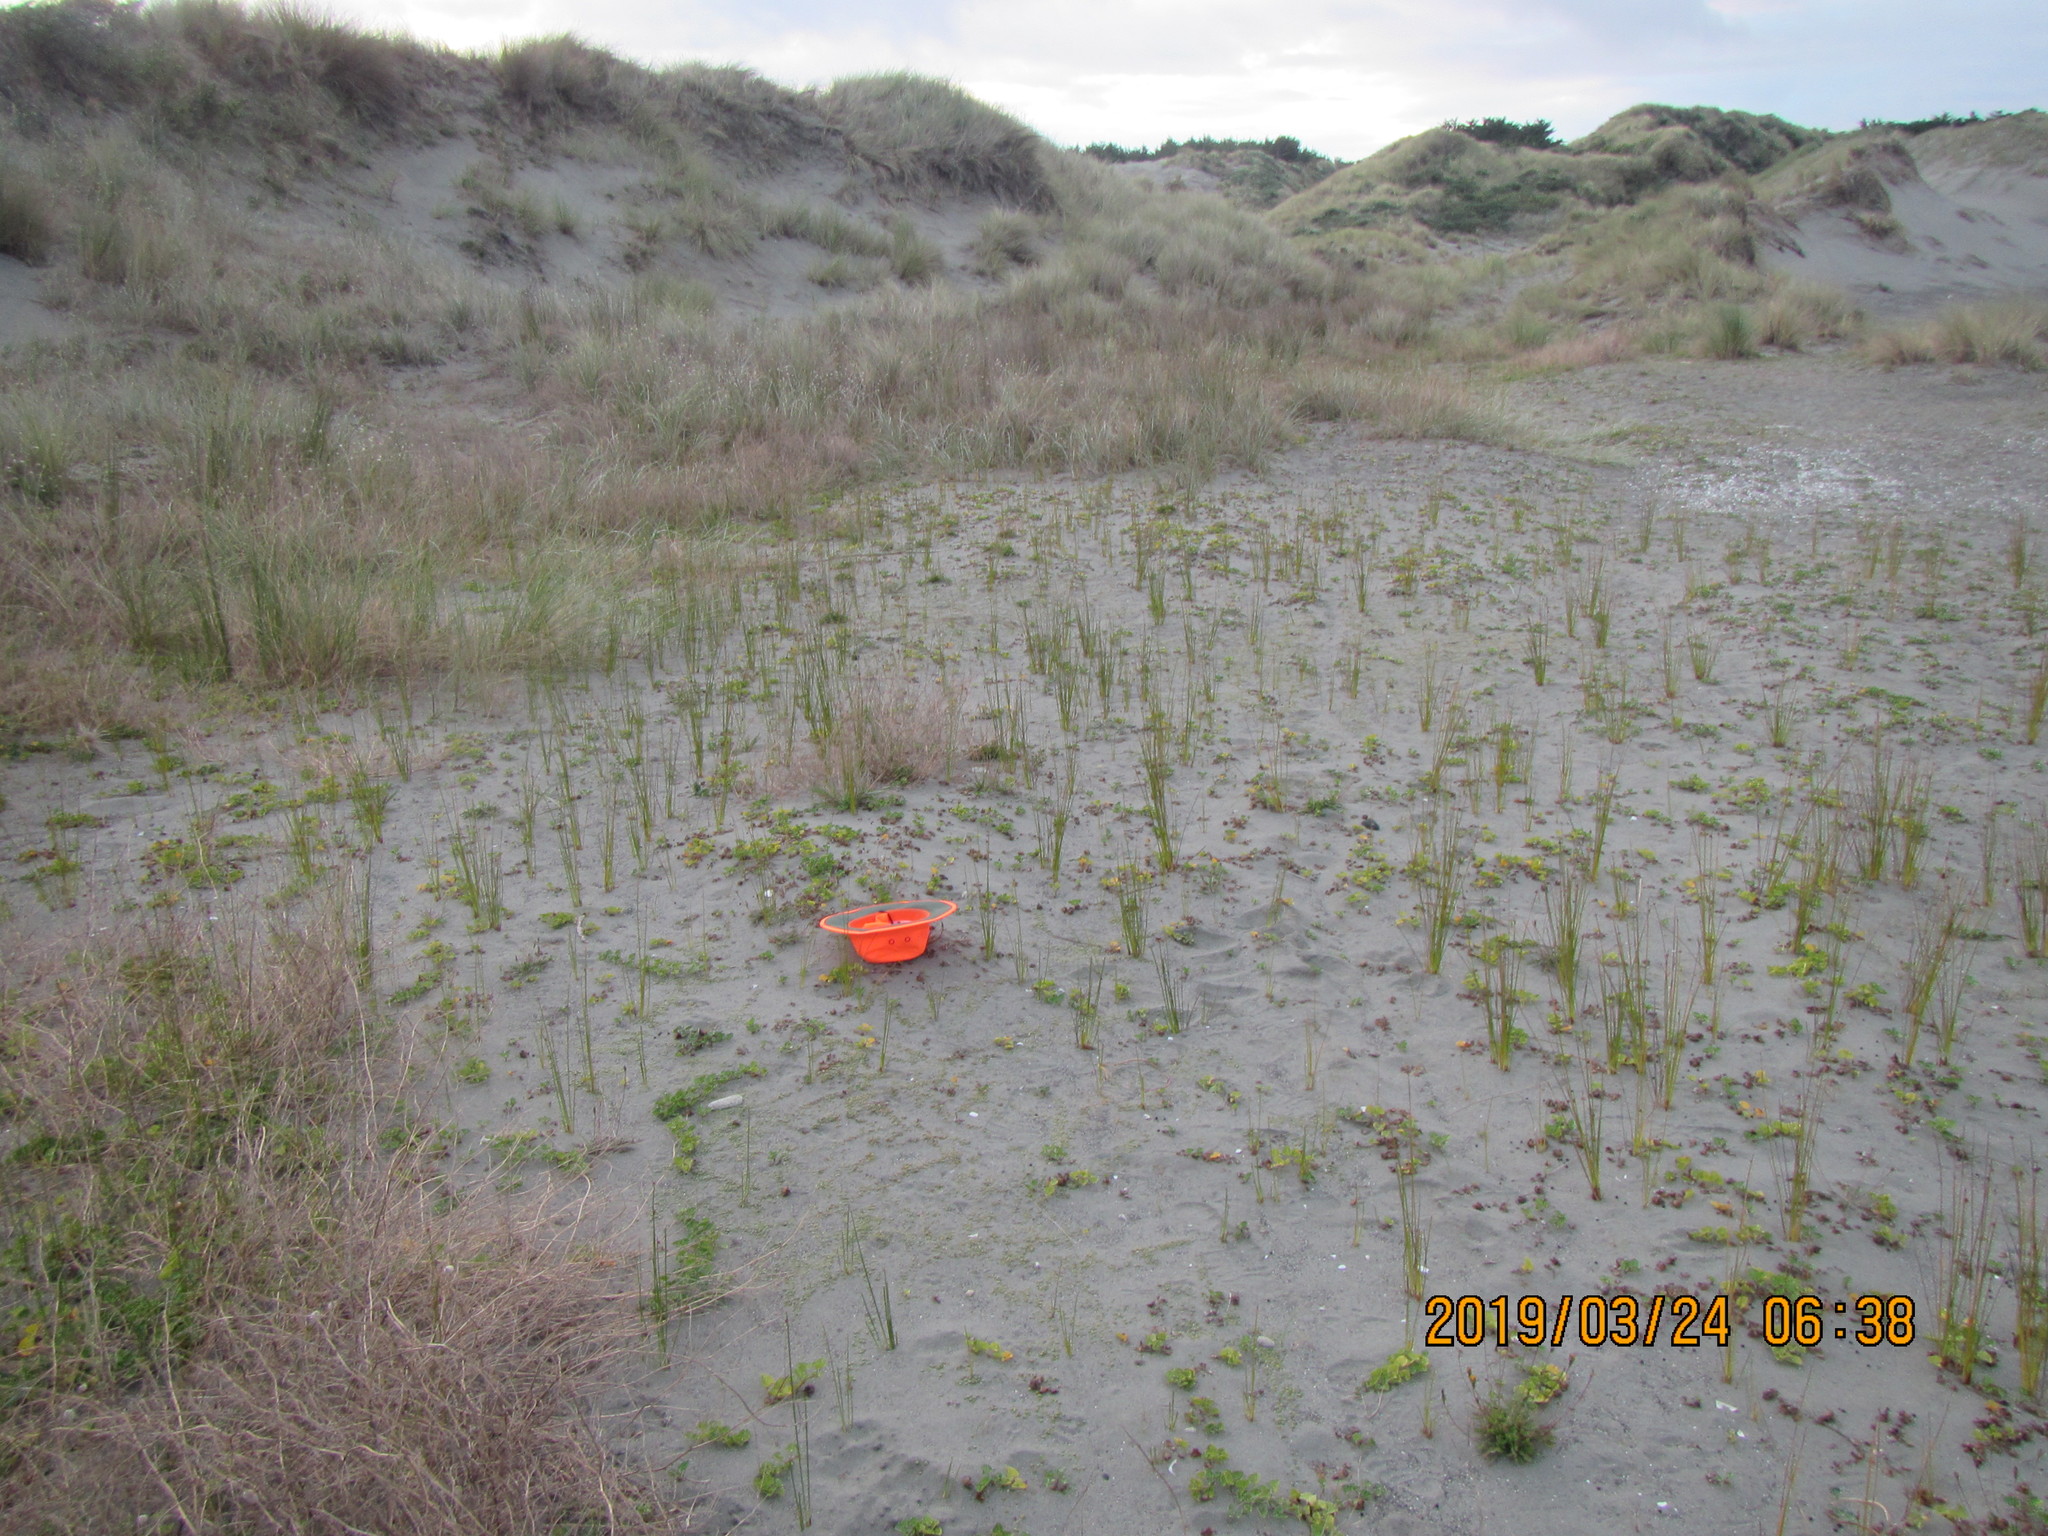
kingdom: Plantae
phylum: Tracheophyta
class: Magnoliopsida
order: Asterales
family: Goodeniaceae
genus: Goodenia
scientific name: Goodenia heenanii
